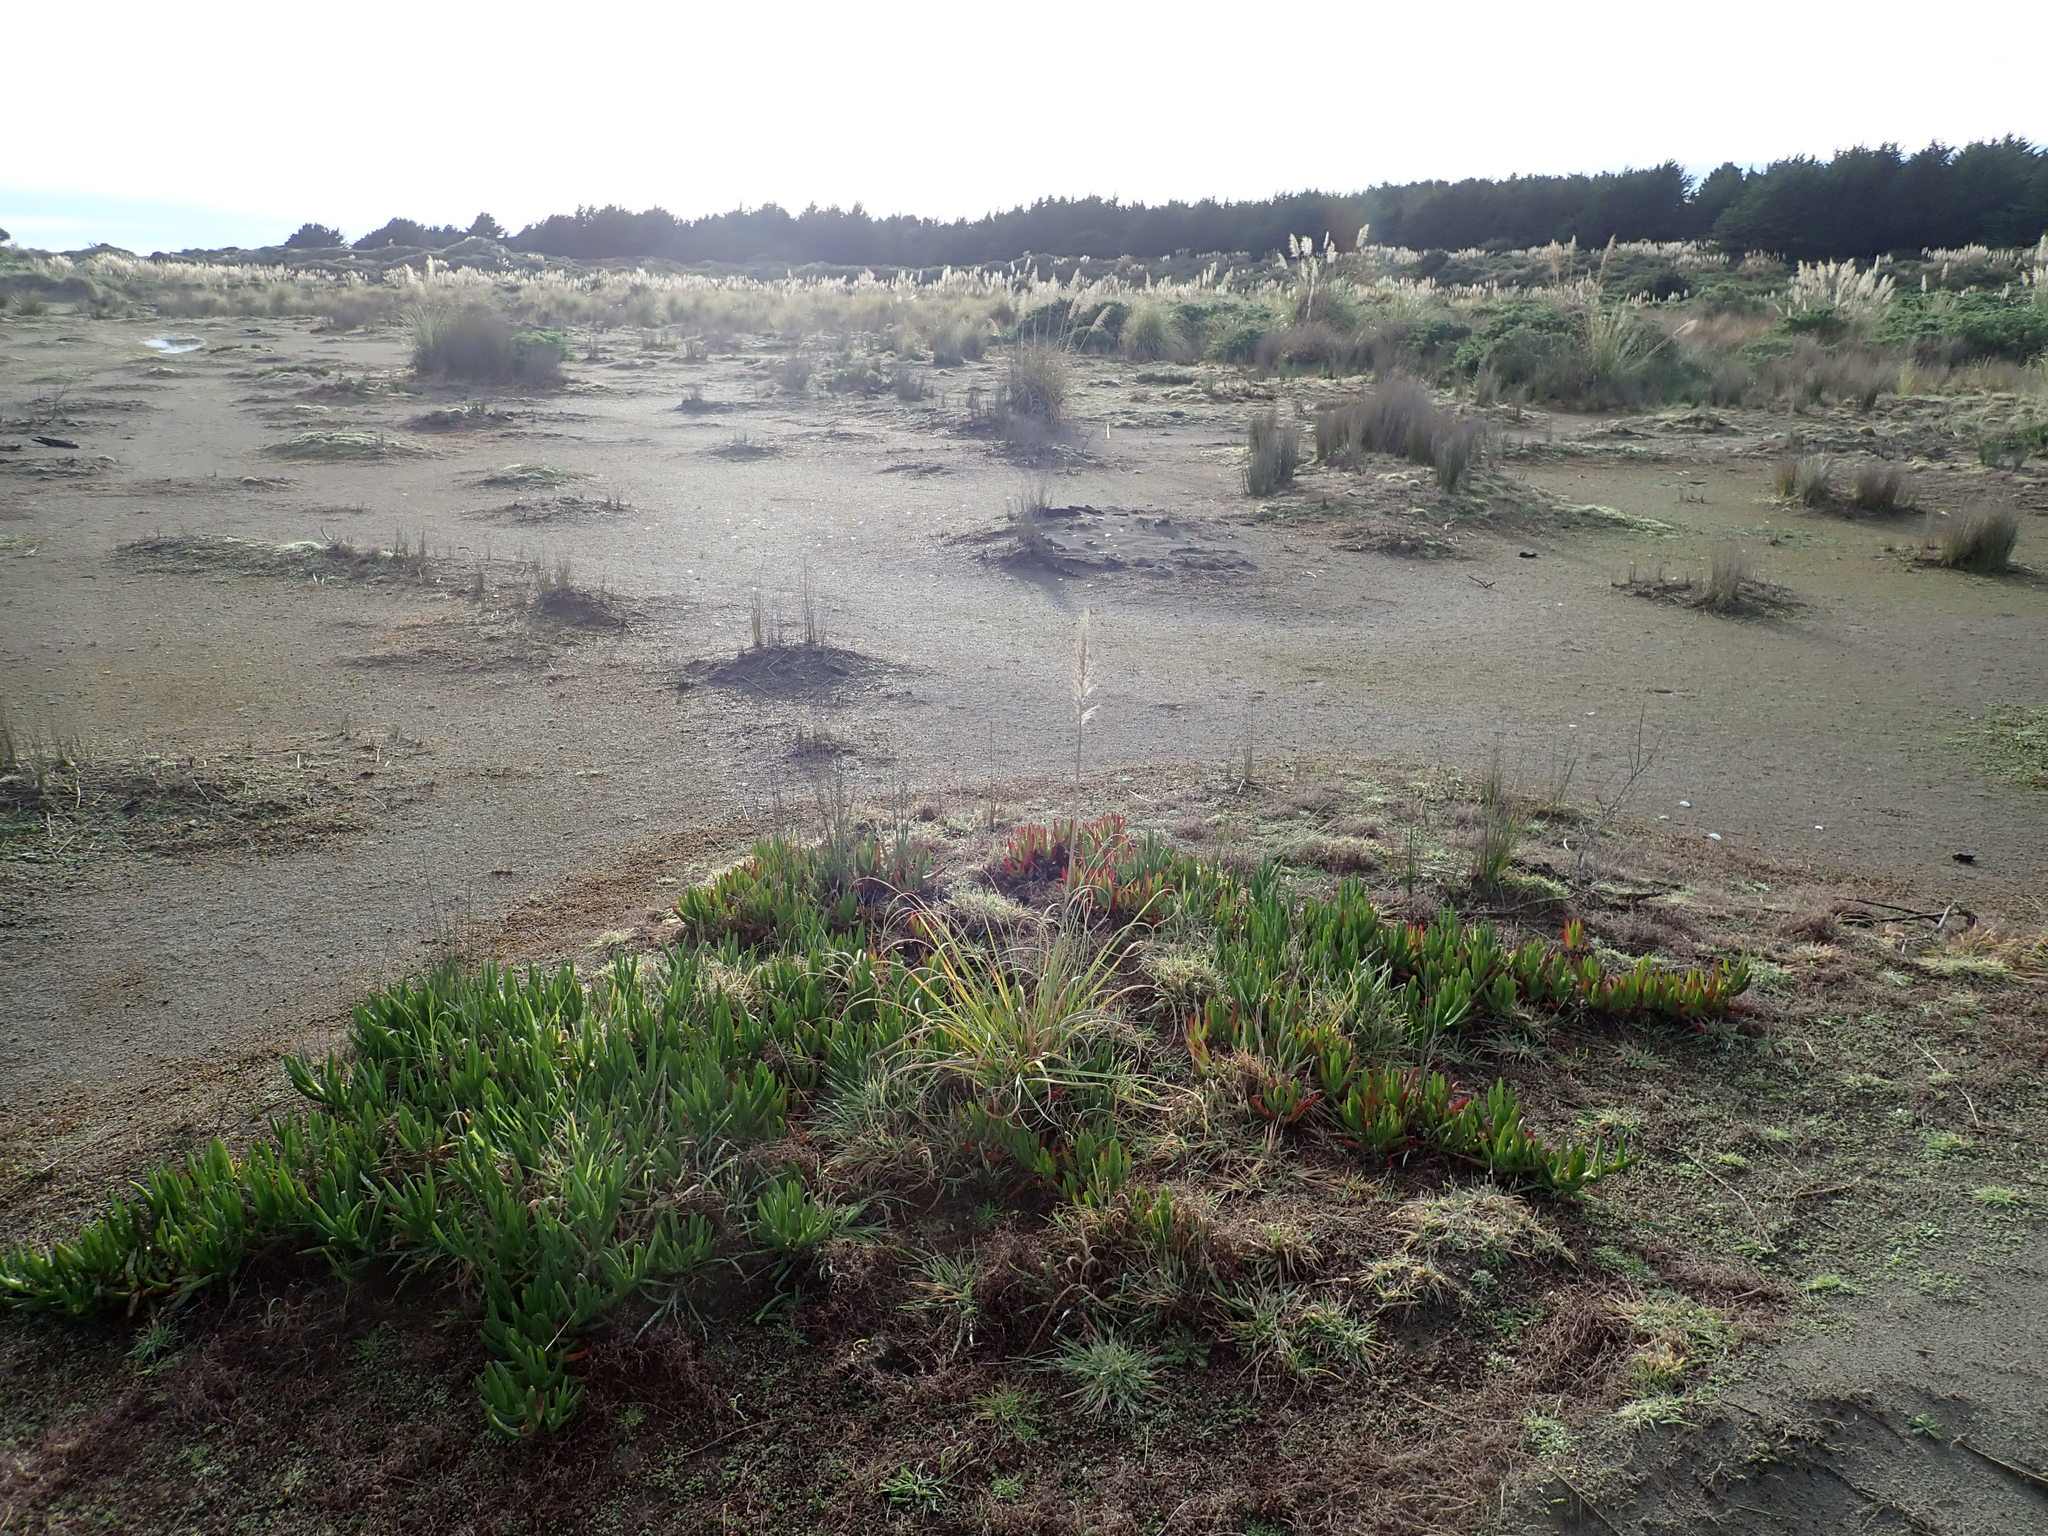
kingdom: Plantae
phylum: Tracheophyta
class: Liliopsida
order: Poales
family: Poaceae
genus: Cortaderia
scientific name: Cortaderia selloana
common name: Uruguayan pampas grass
